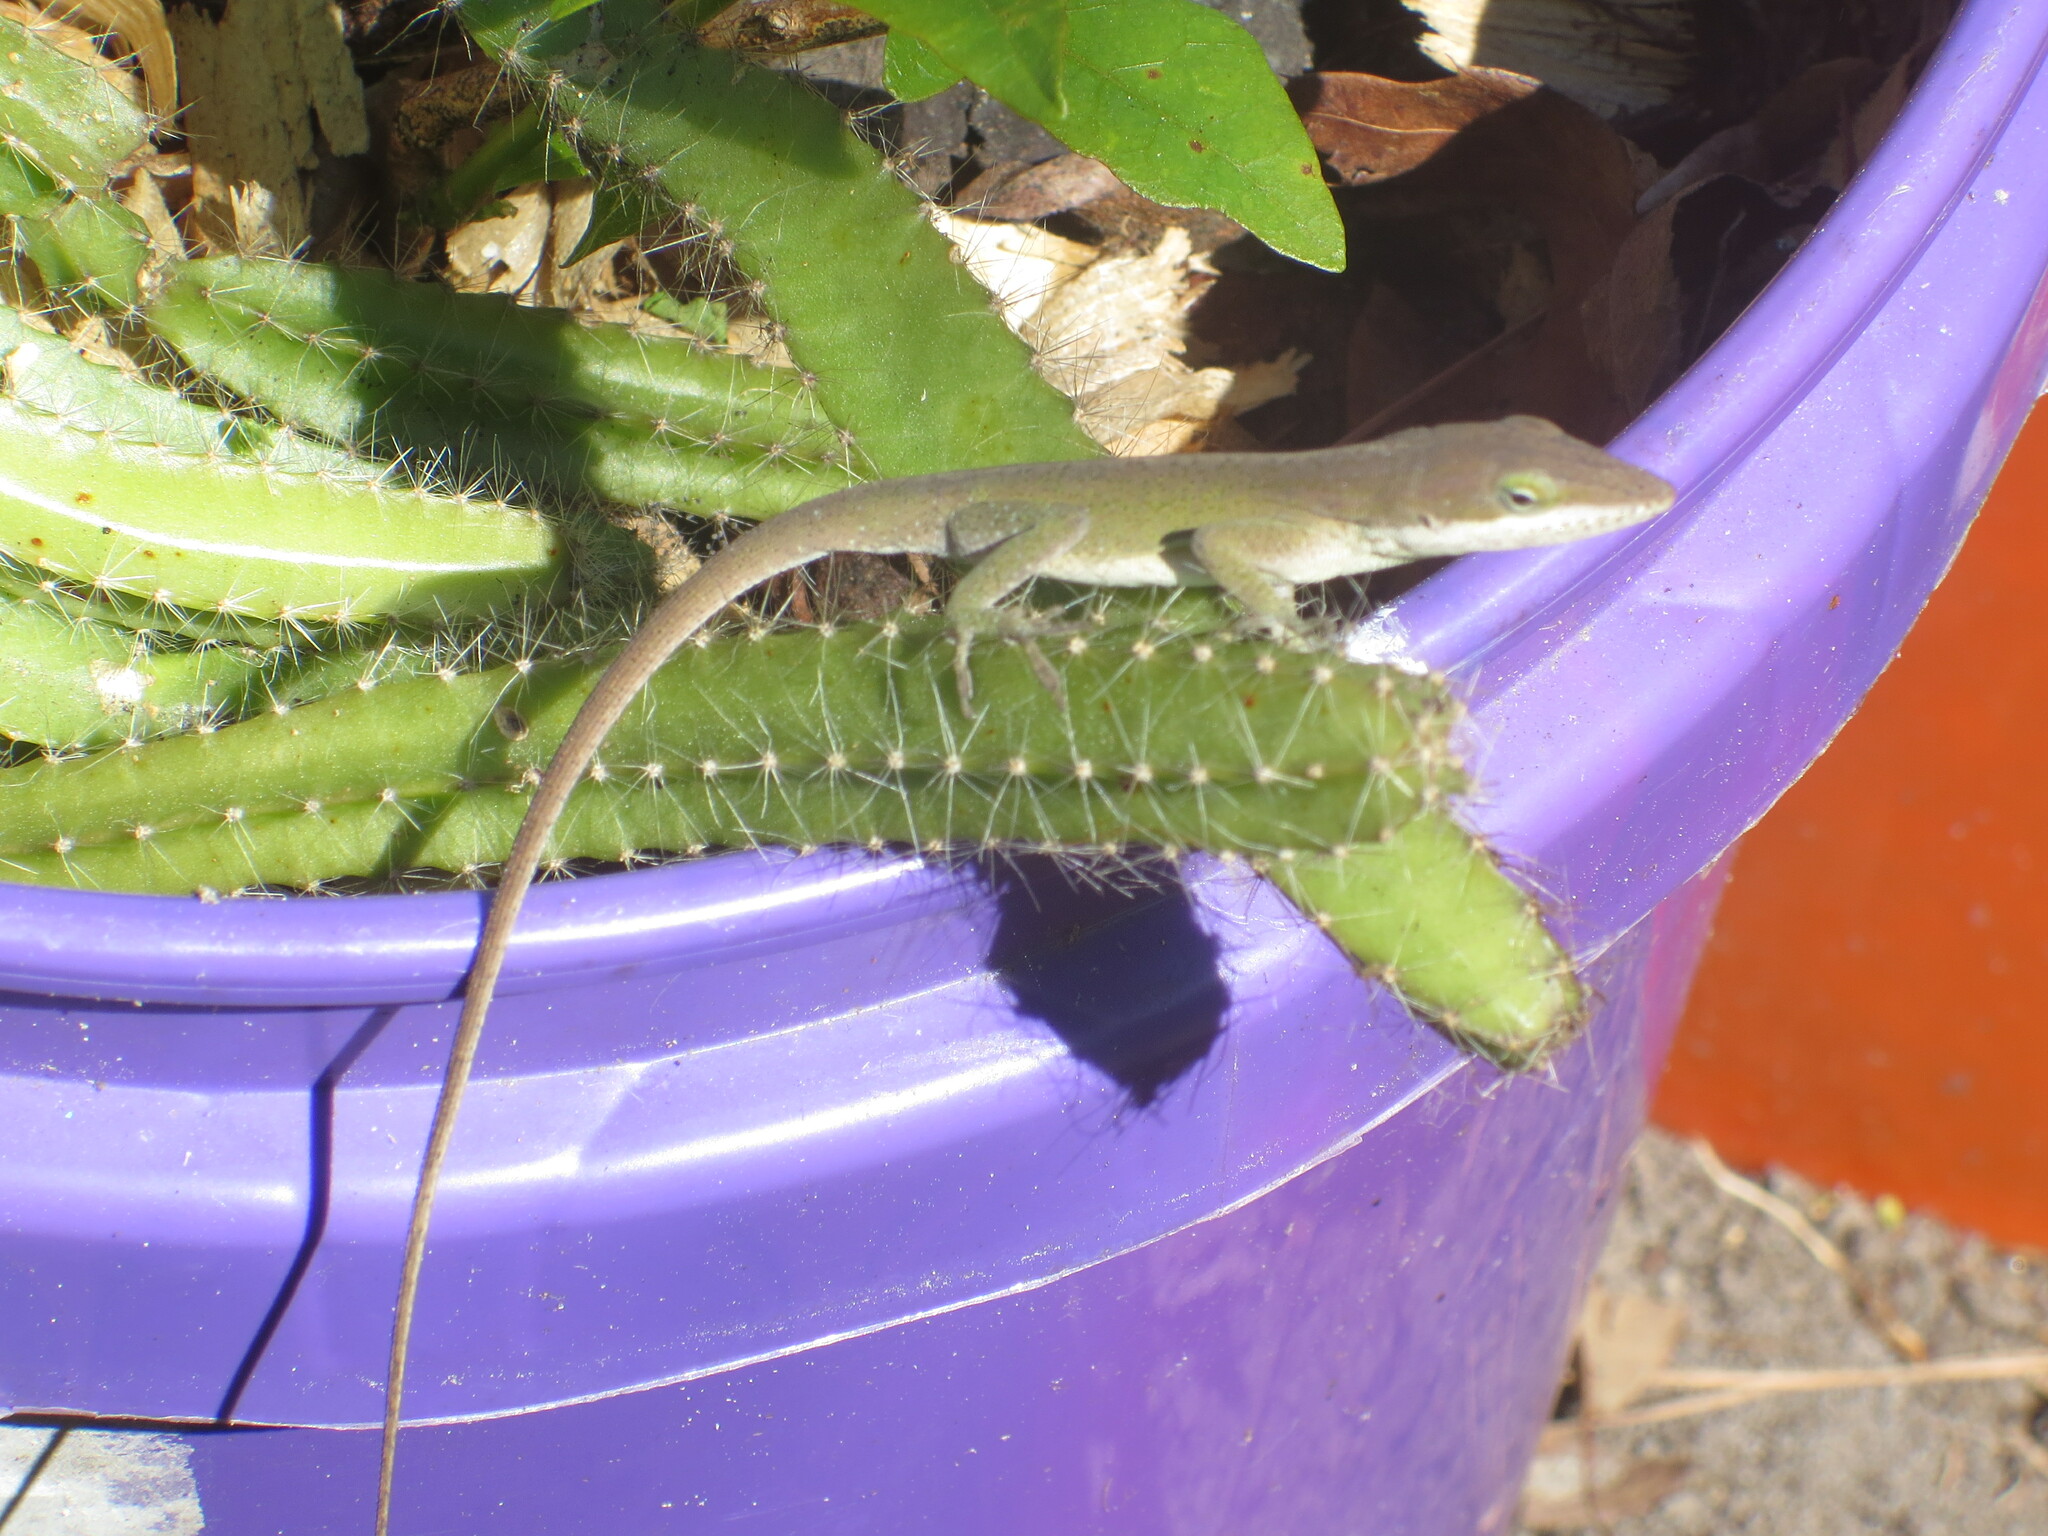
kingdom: Animalia
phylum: Chordata
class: Squamata
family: Dactyloidae
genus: Anolis
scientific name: Anolis carolinensis
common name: Green anole
